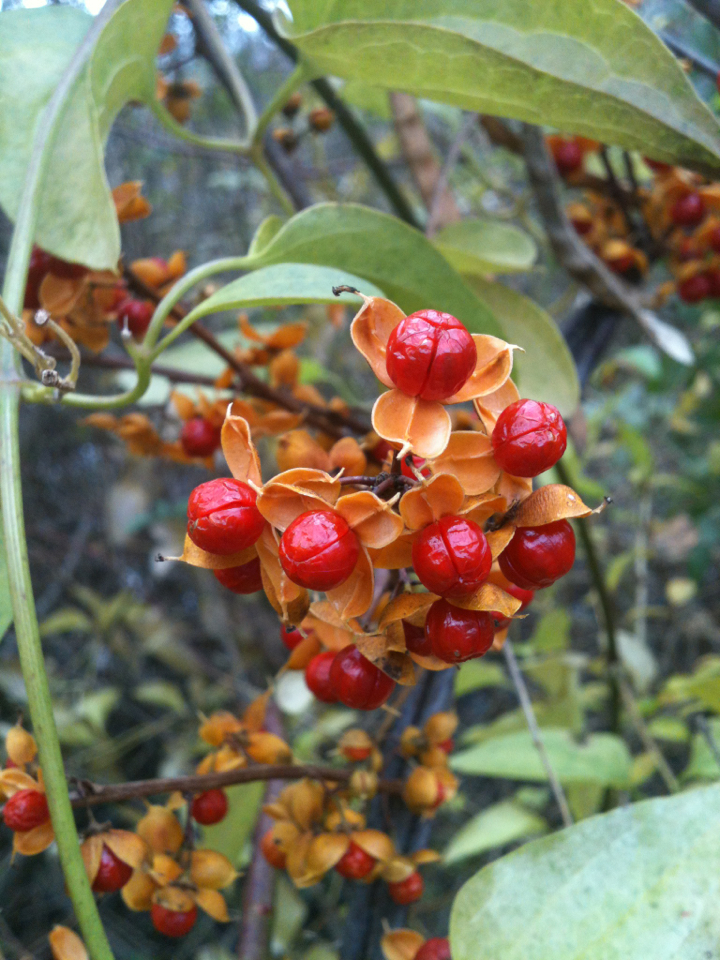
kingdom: Plantae
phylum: Tracheophyta
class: Magnoliopsida
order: Celastrales
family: Celastraceae
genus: Celastrus
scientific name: Celastrus orbiculatus
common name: Oriental bittersweet
